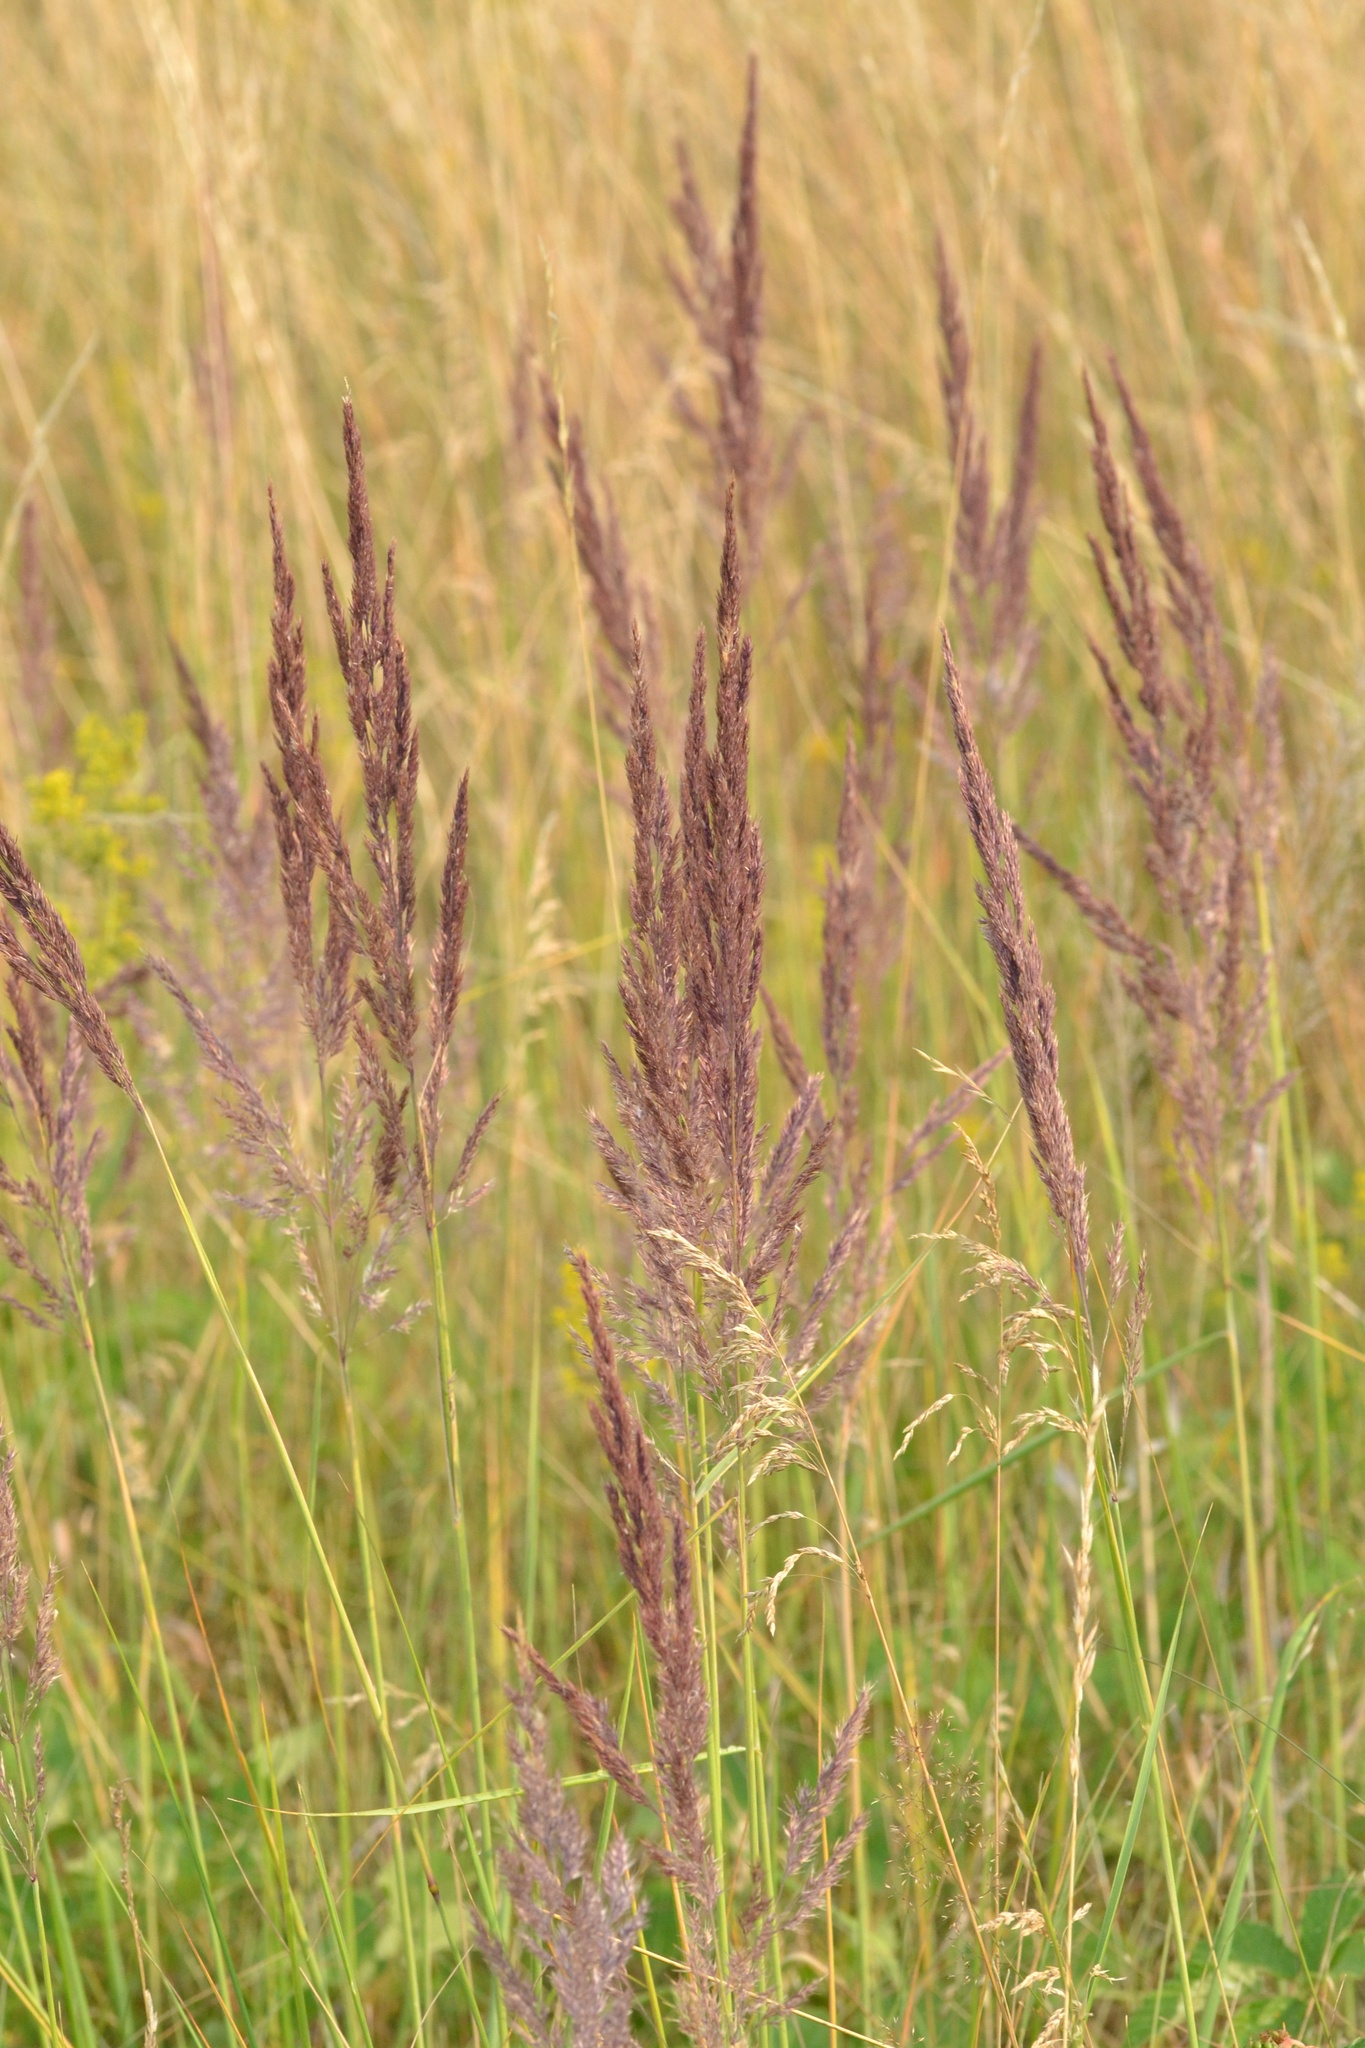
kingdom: Plantae
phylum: Tracheophyta
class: Liliopsida
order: Poales
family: Poaceae
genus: Calamagrostis
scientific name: Calamagrostis epigejos
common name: Wood small-reed
